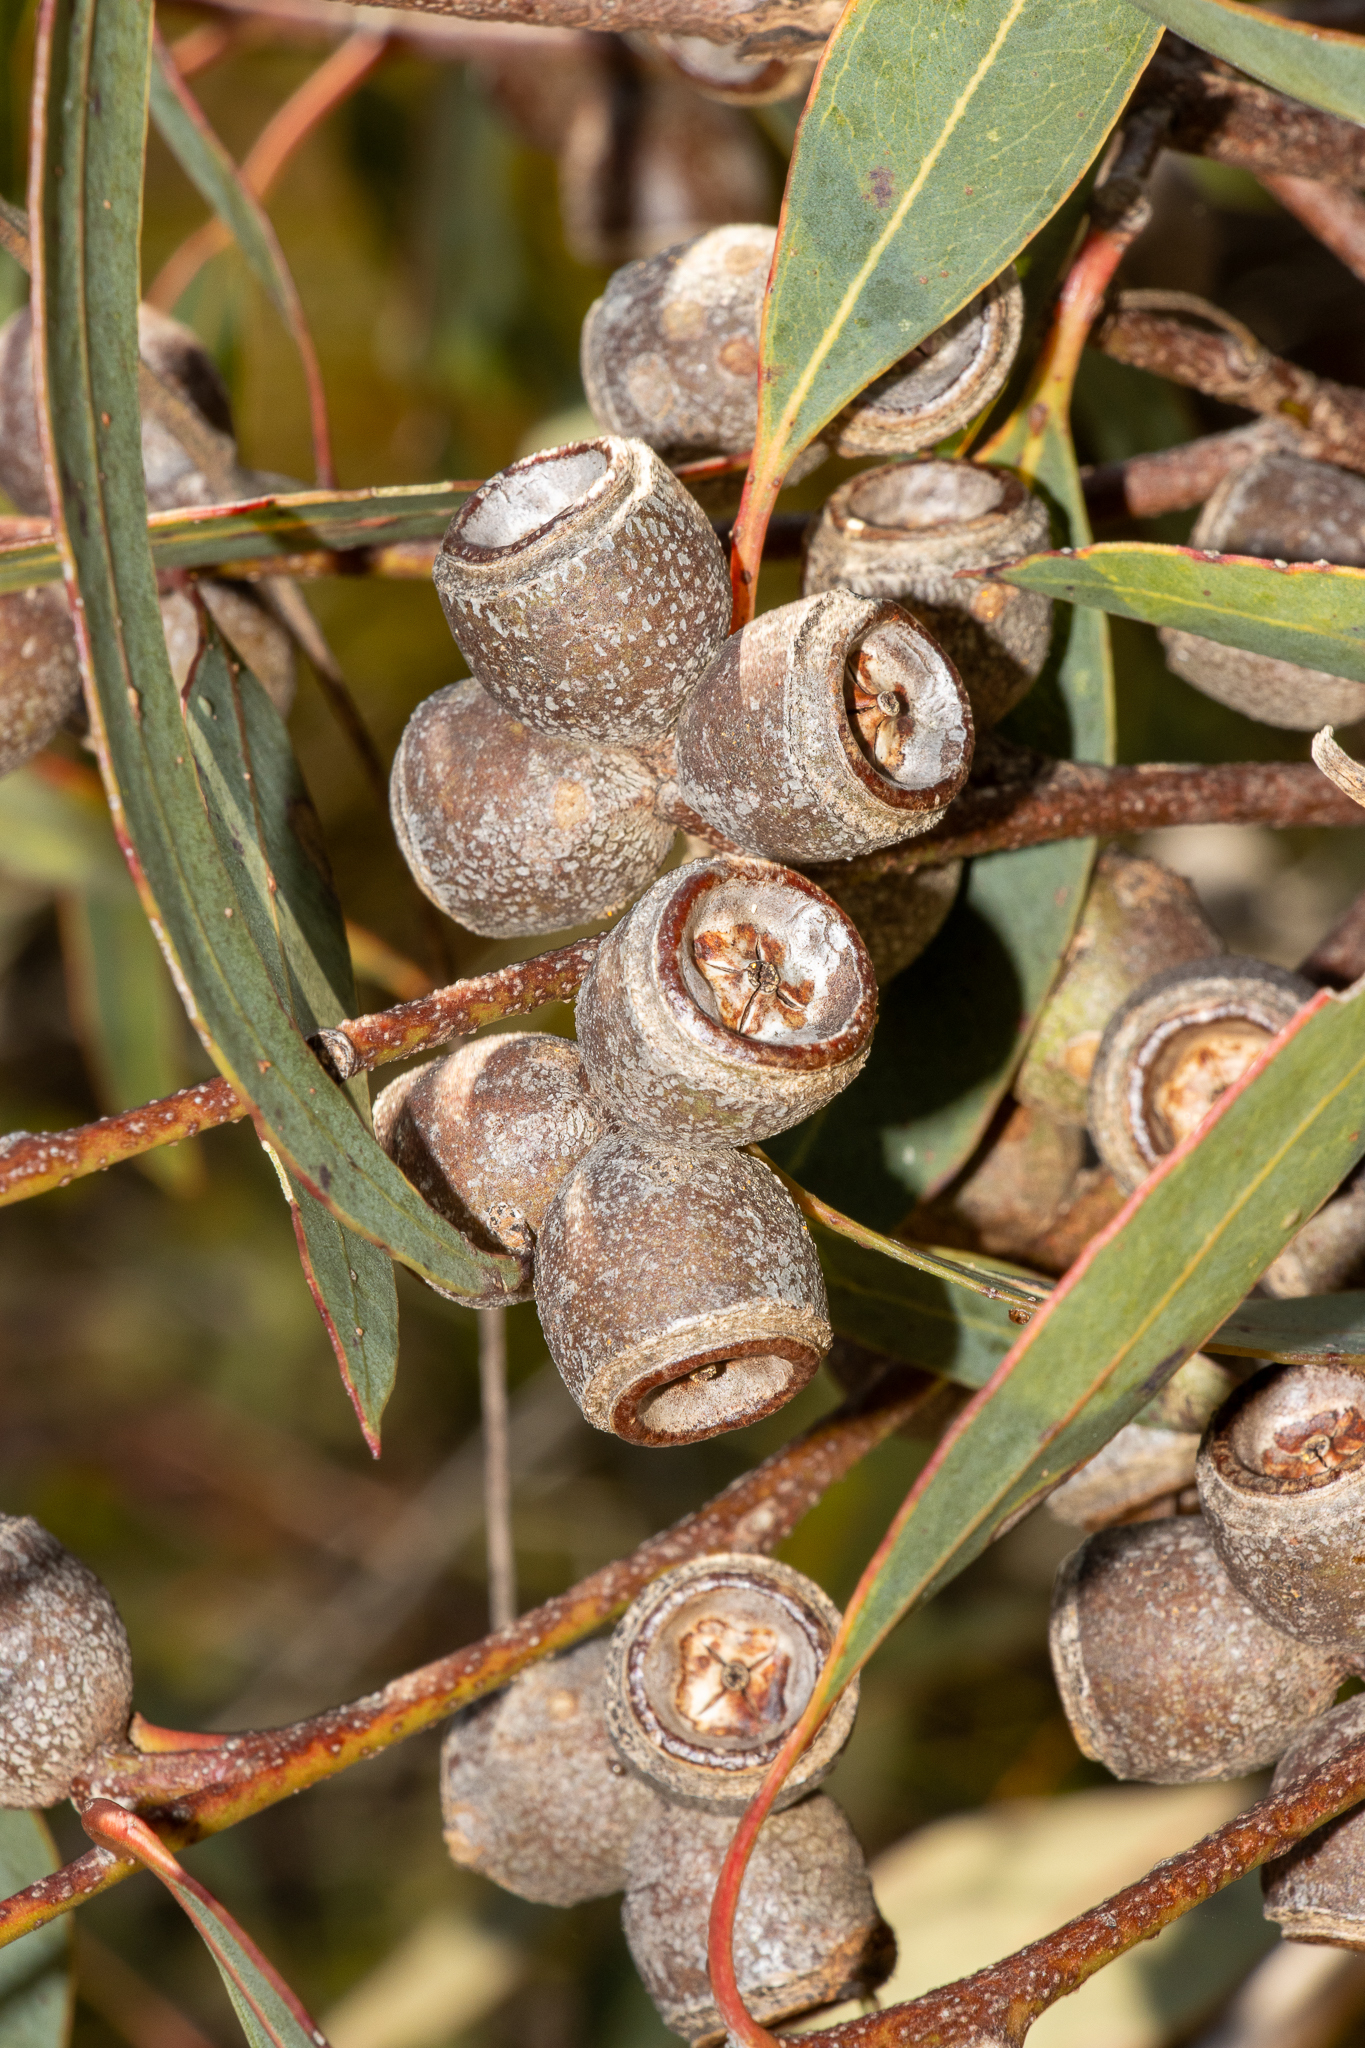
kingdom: Plantae
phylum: Tracheophyta
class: Magnoliopsida
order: Myrtales
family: Myrtaceae
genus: Eucalyptus
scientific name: Eucalyptus cosmophylla
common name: Bog-gum
